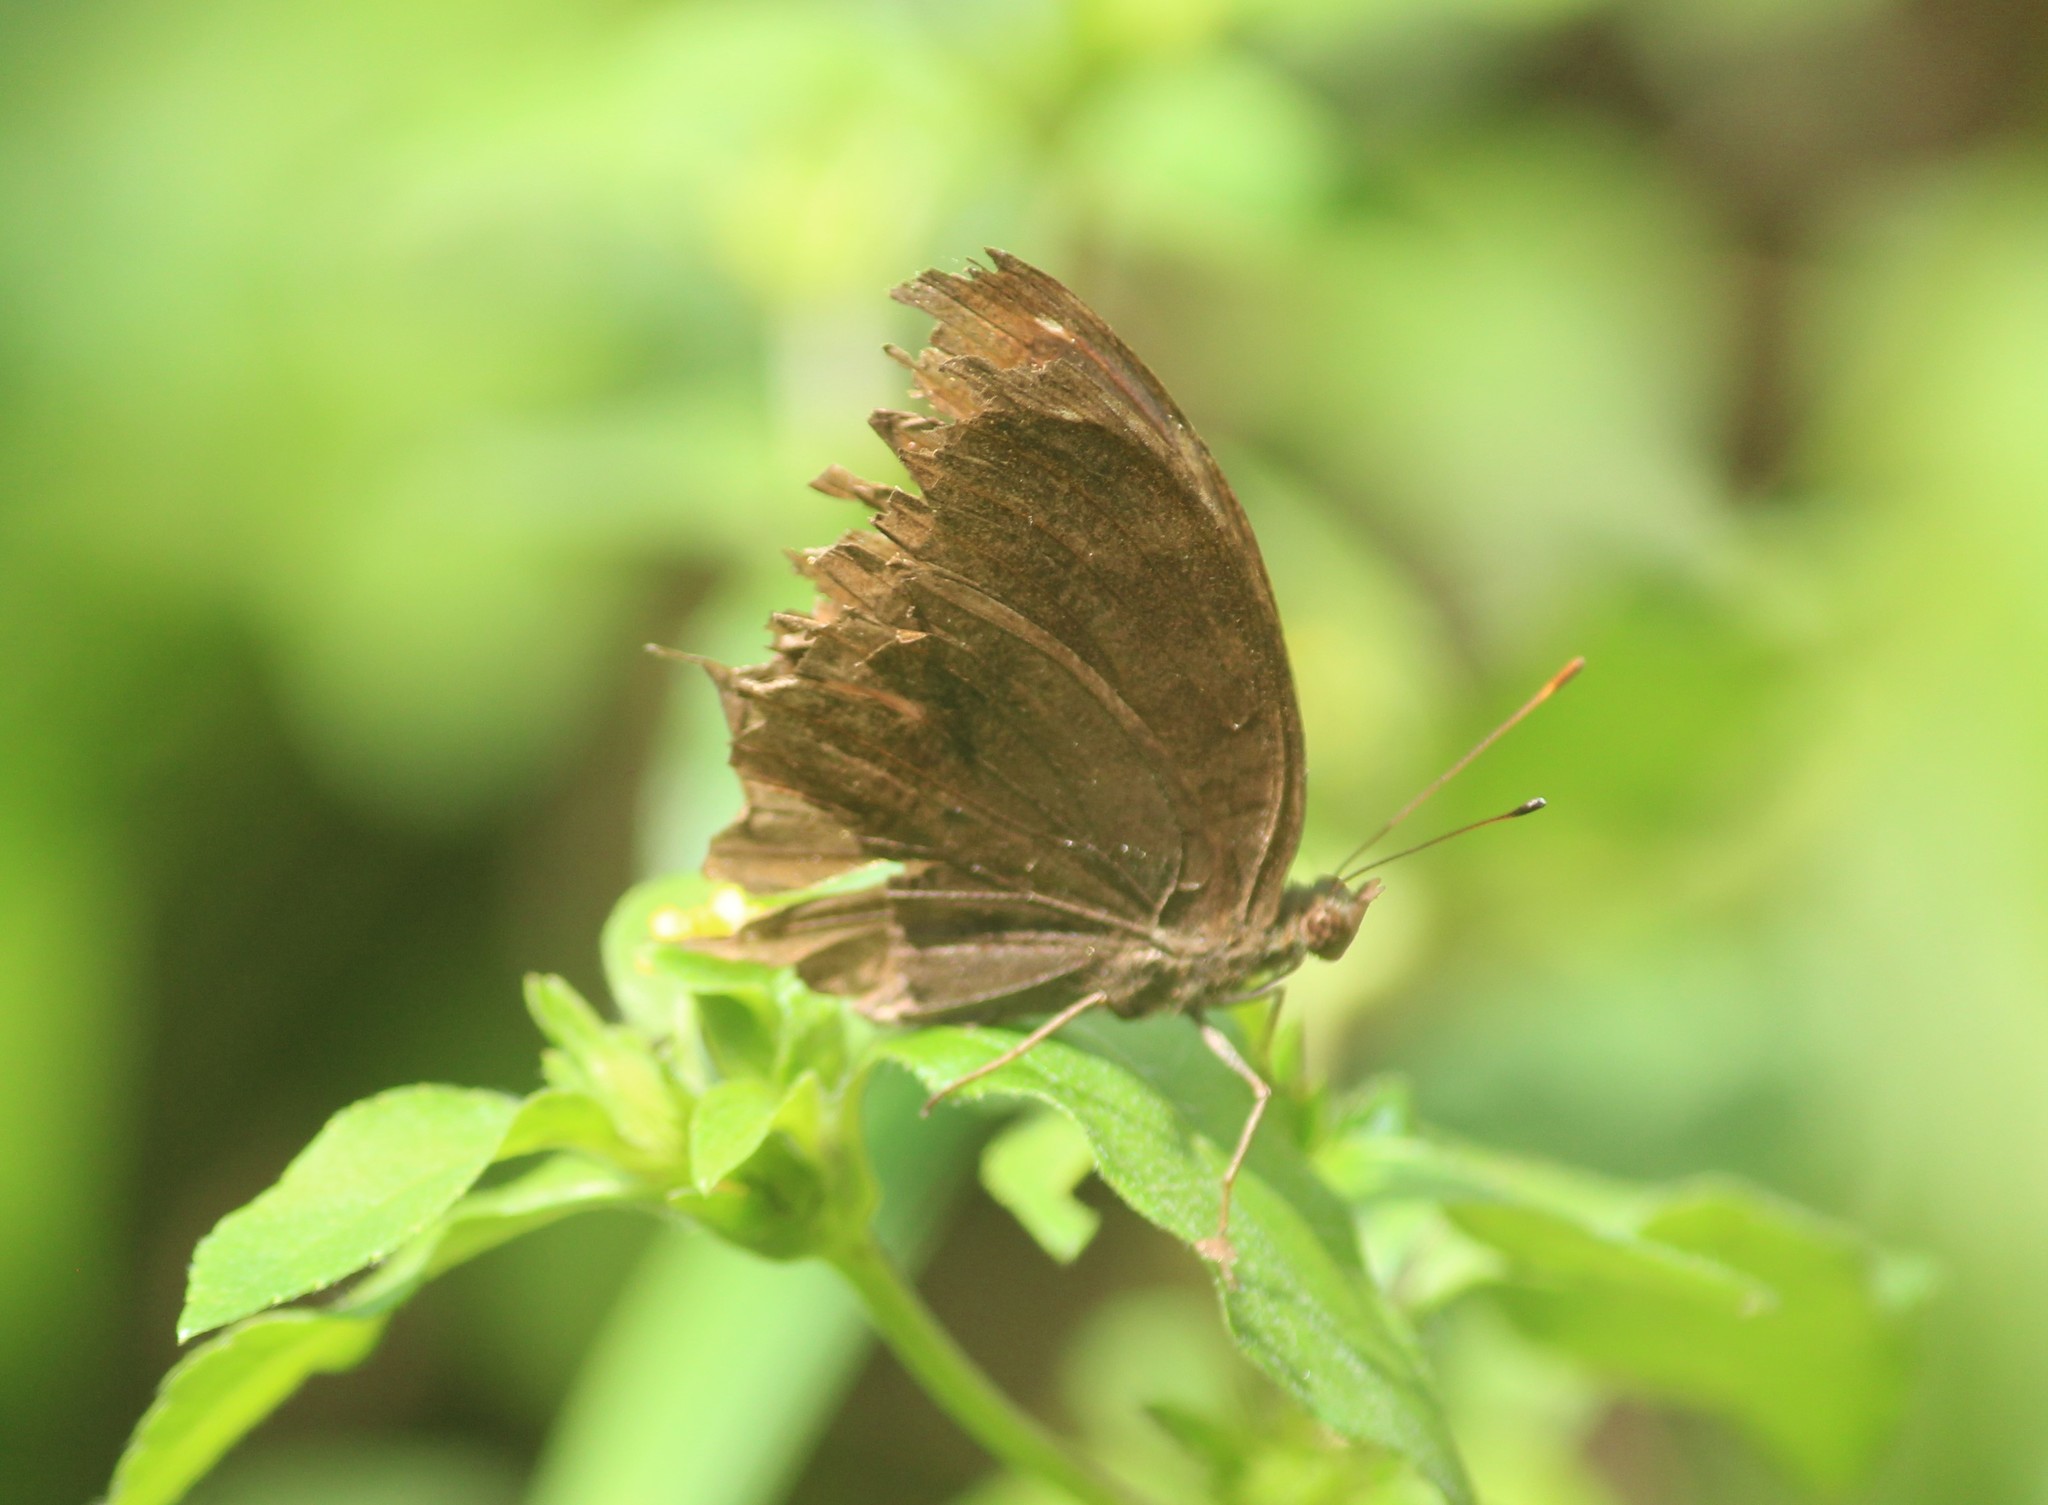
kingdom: Animalia
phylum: Arthropoda
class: Insecta
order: Lepidoptera
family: Nymphalidae
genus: Junonia
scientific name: Junonia iphita
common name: Chocolate pansy
